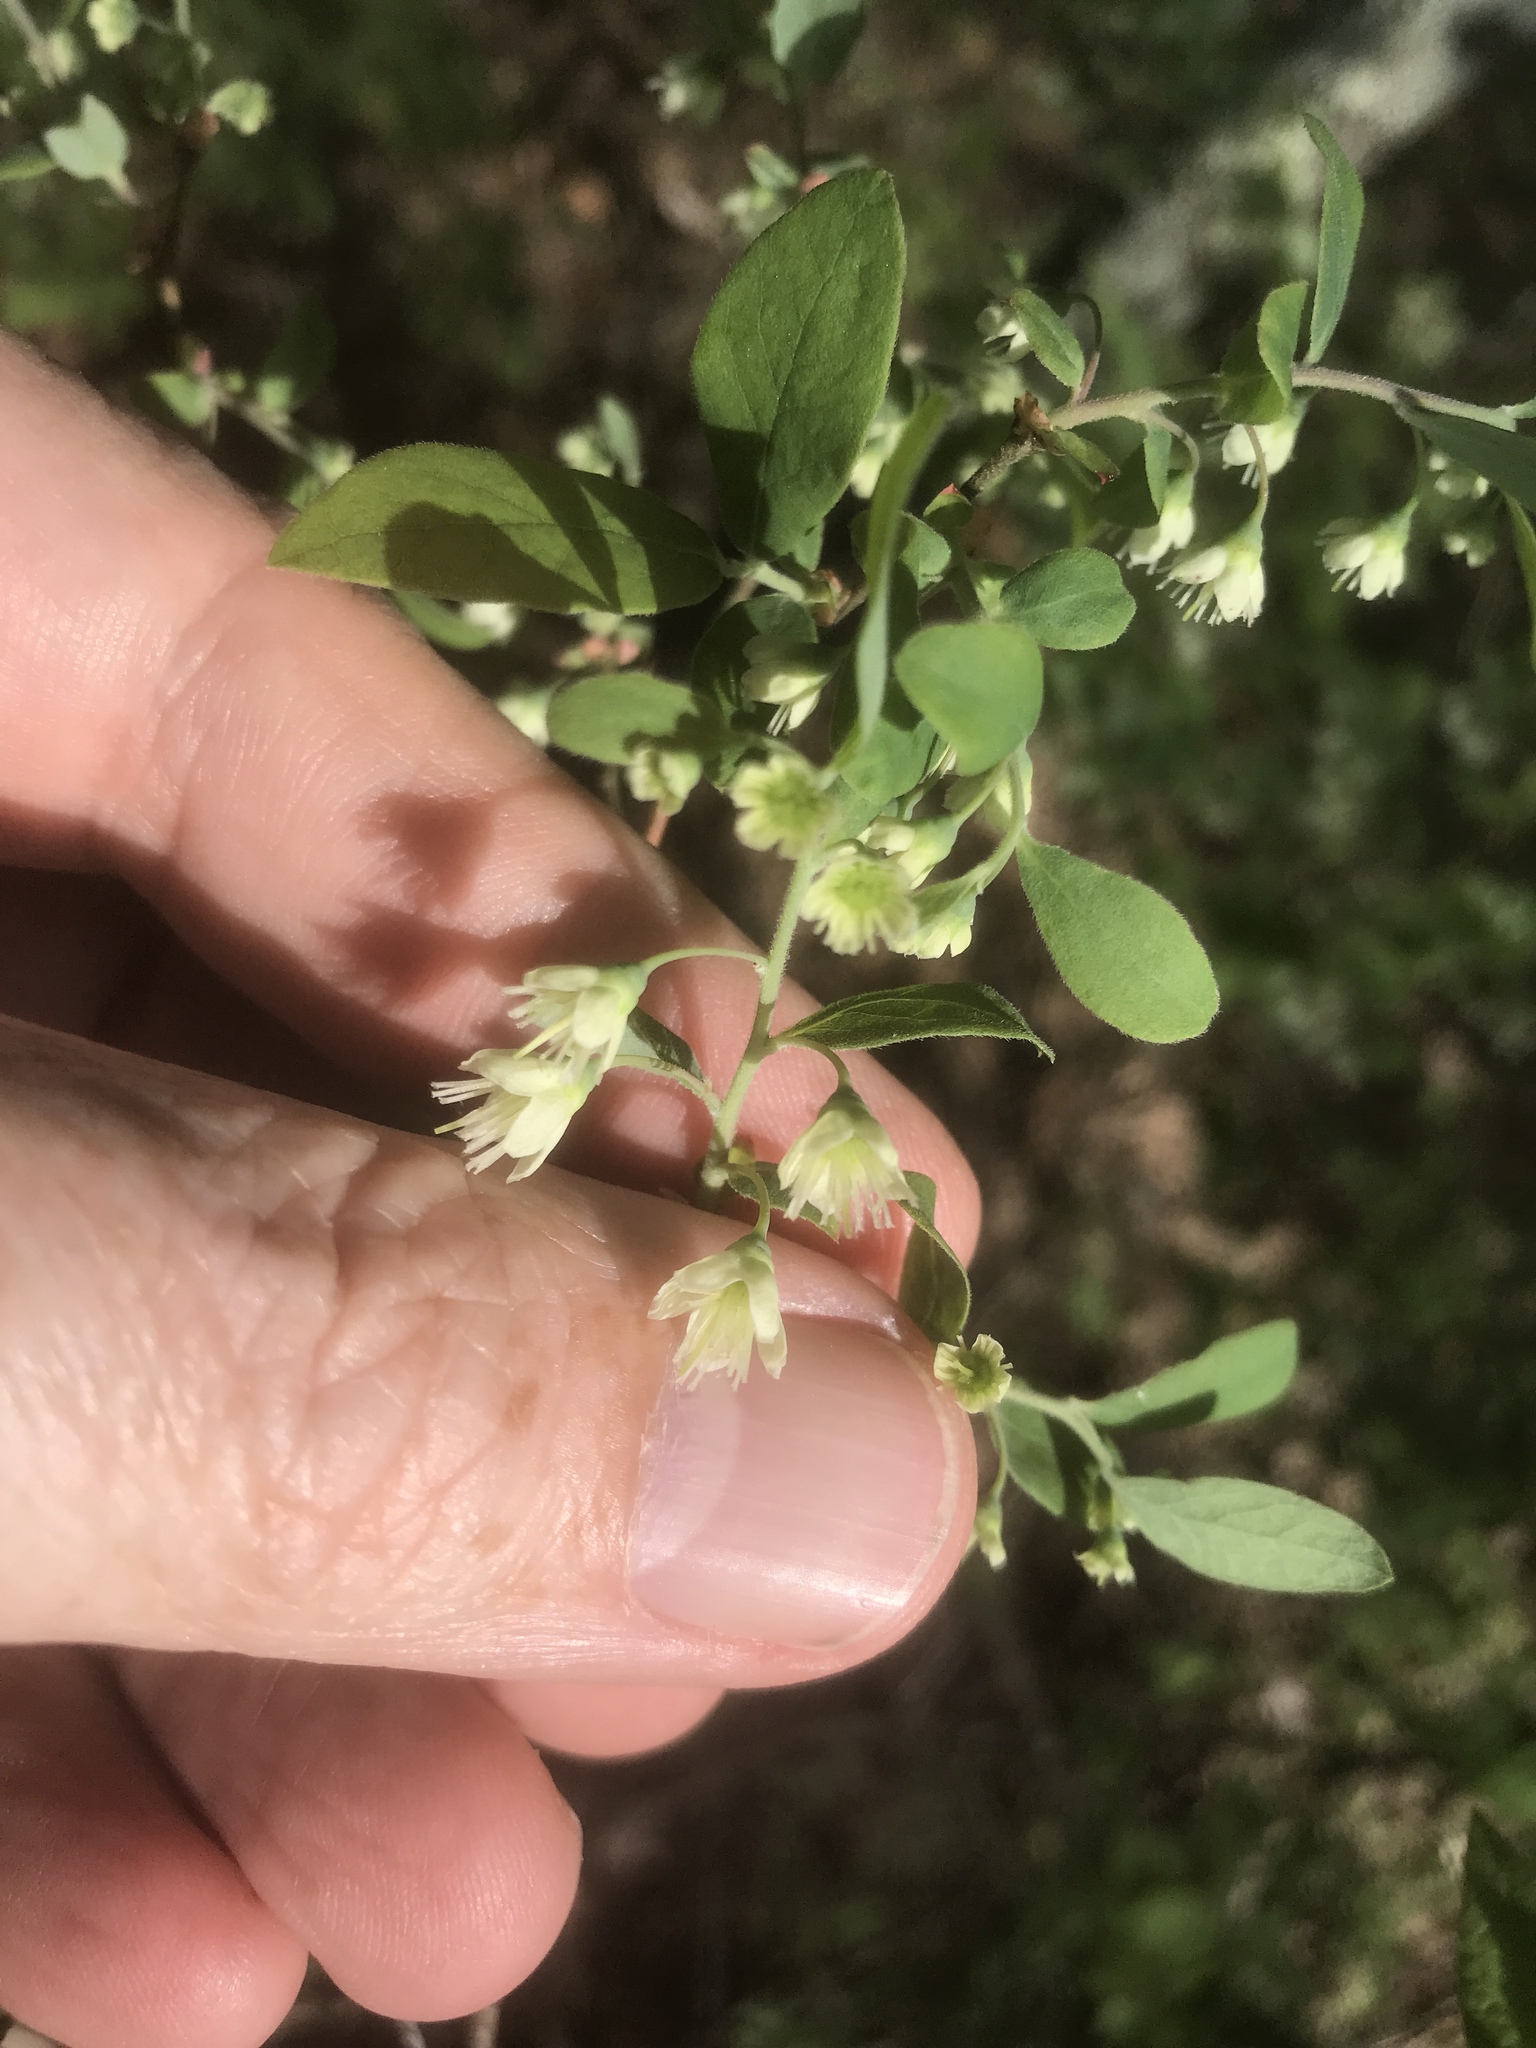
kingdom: Plantae
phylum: Tracheophyta
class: Magnoliopsida
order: Ericales
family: Ericaceae
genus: Vaccinium
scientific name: Vaccinium stamineum
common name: Deerberry
